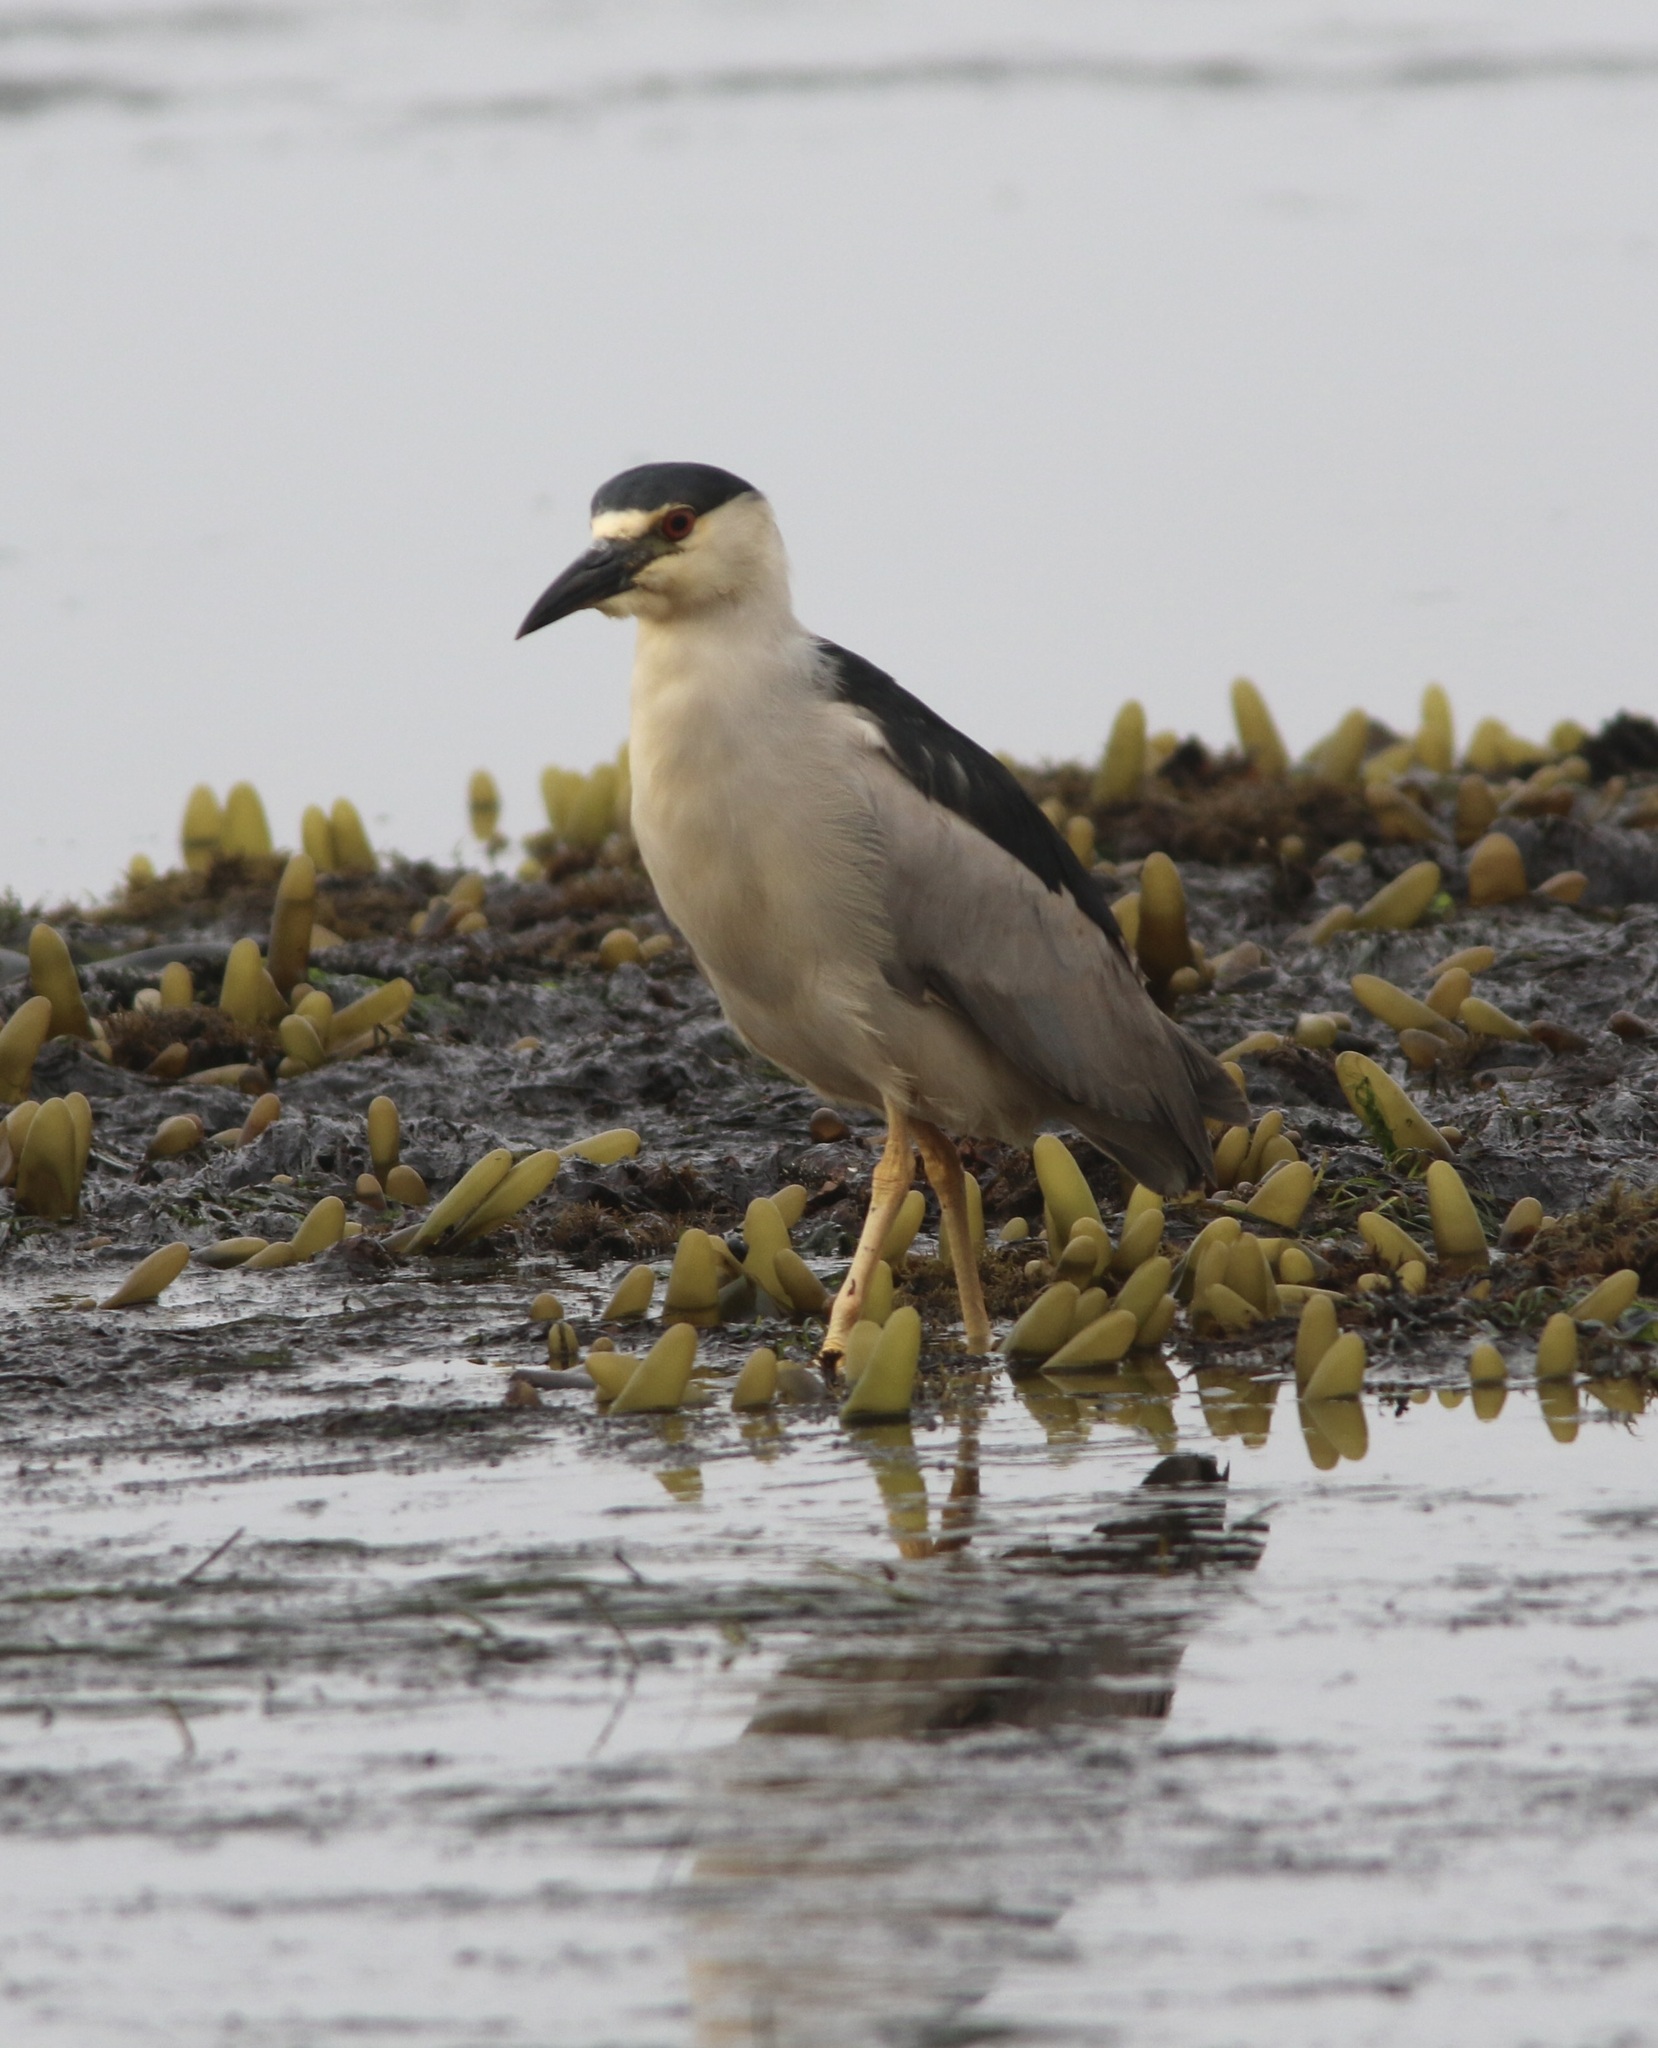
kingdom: Animalia
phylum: Chordata
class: Aves
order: Pelecaniformes
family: Ardeidae
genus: Nycticorax
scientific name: Nycticorax nycticorax
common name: Black-crowned night heron
